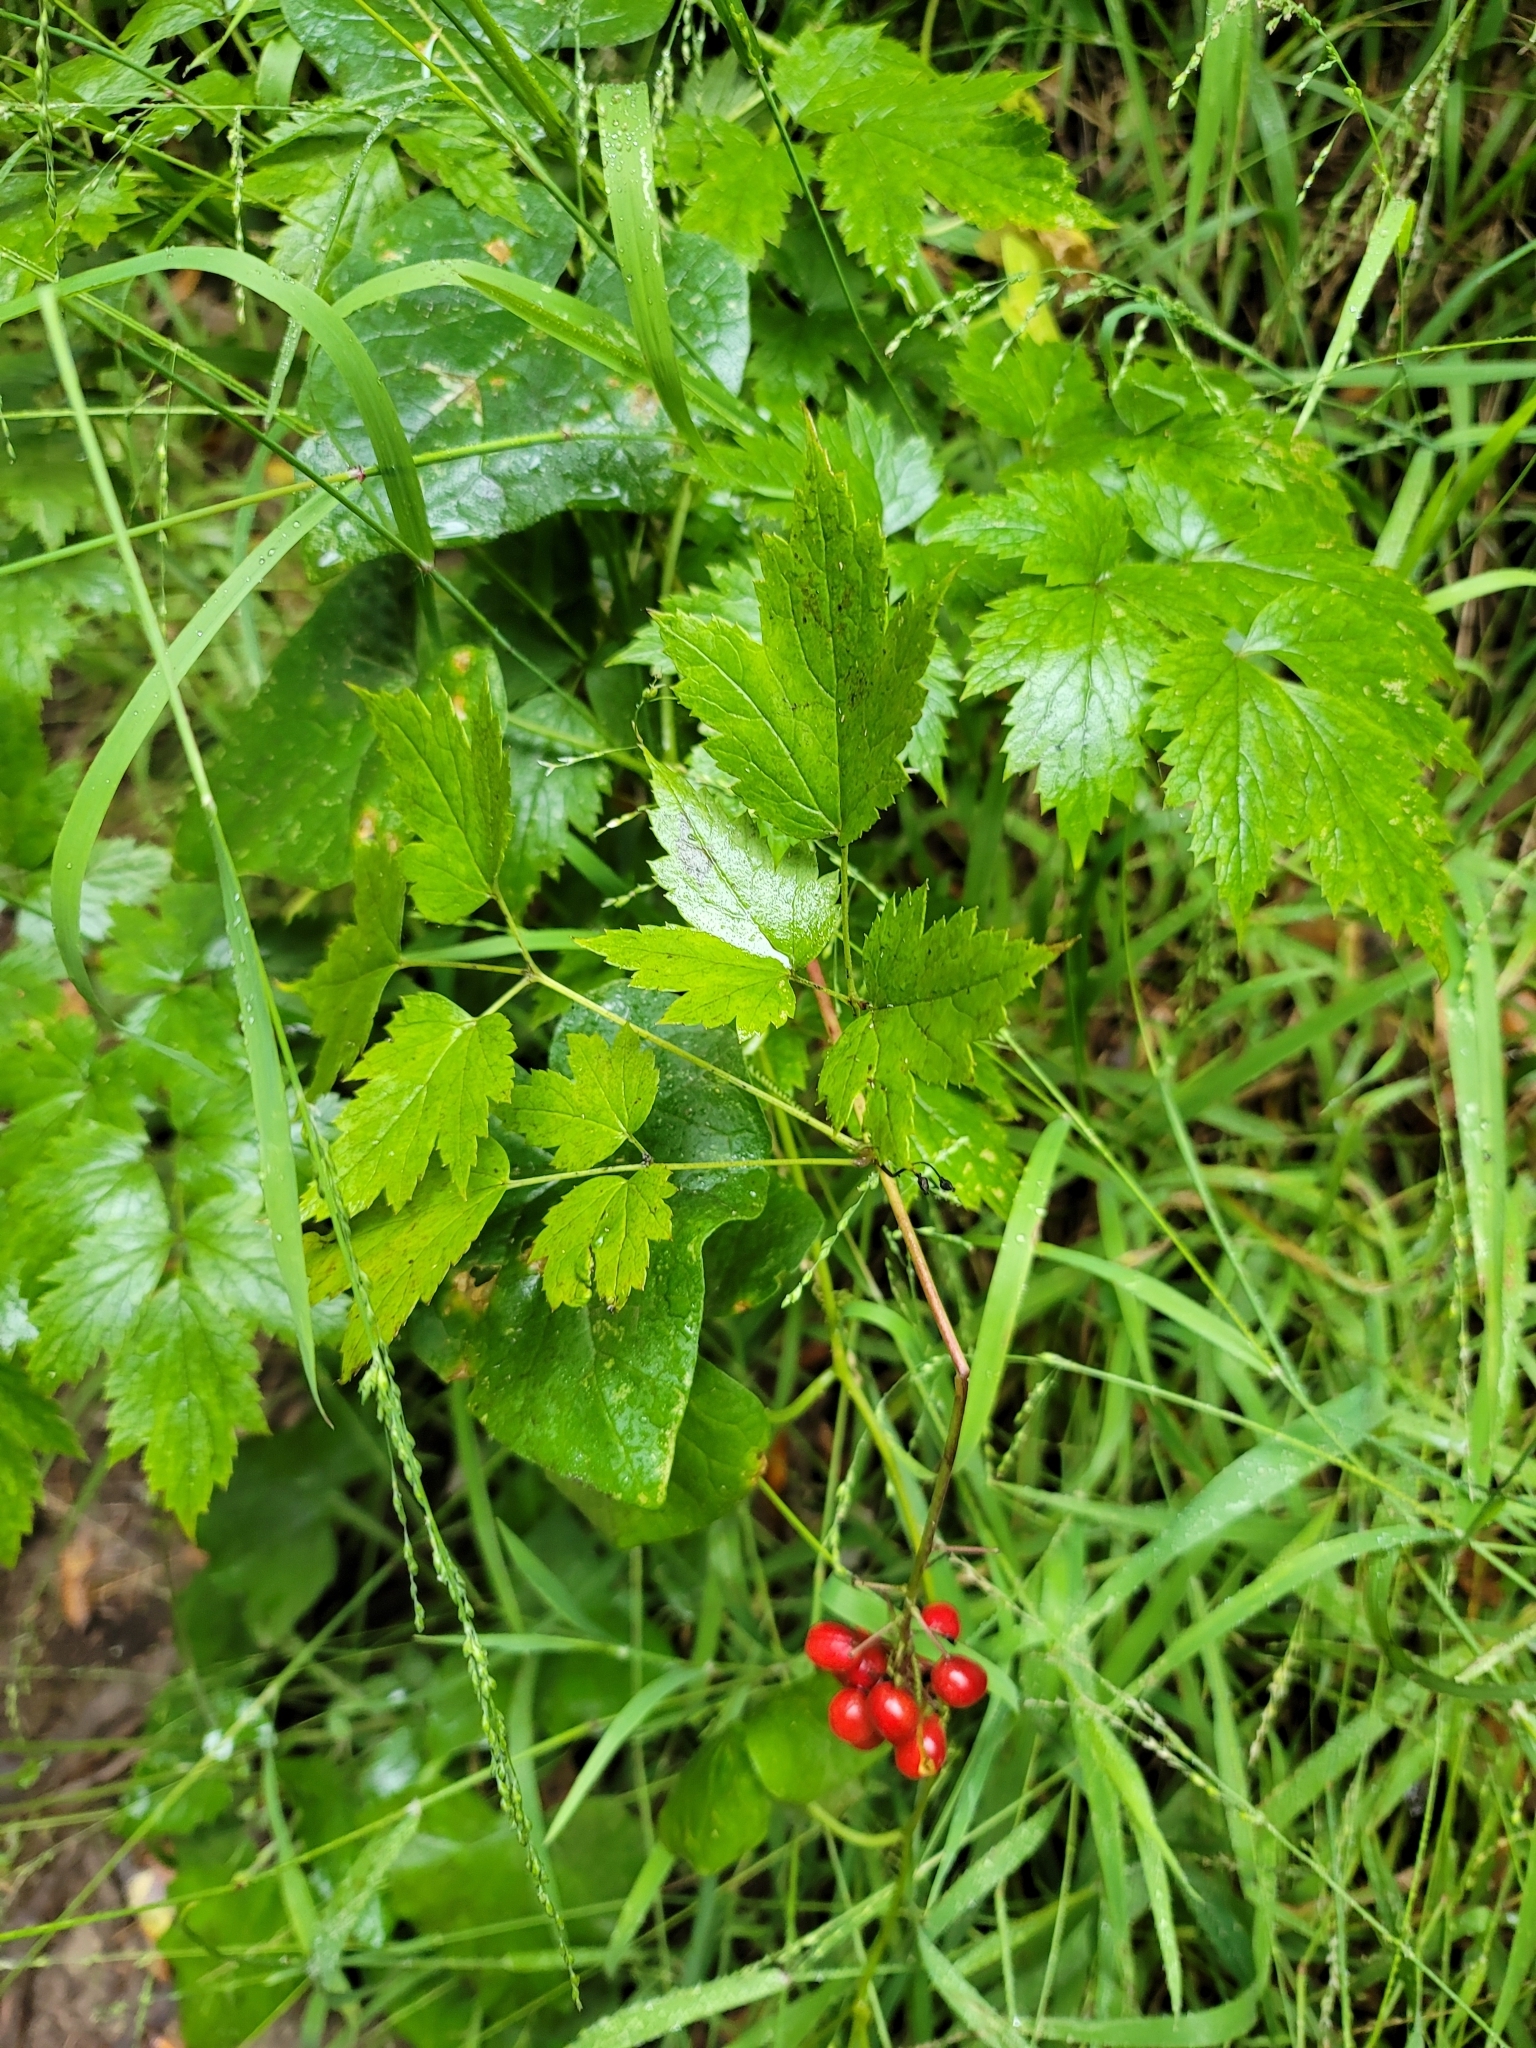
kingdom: Plantae
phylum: Tracheophyta
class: Magnoliopsida
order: Ranunculales
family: Ranunculaceae
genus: Actaea
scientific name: Actaea rubra
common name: Red baneberry
